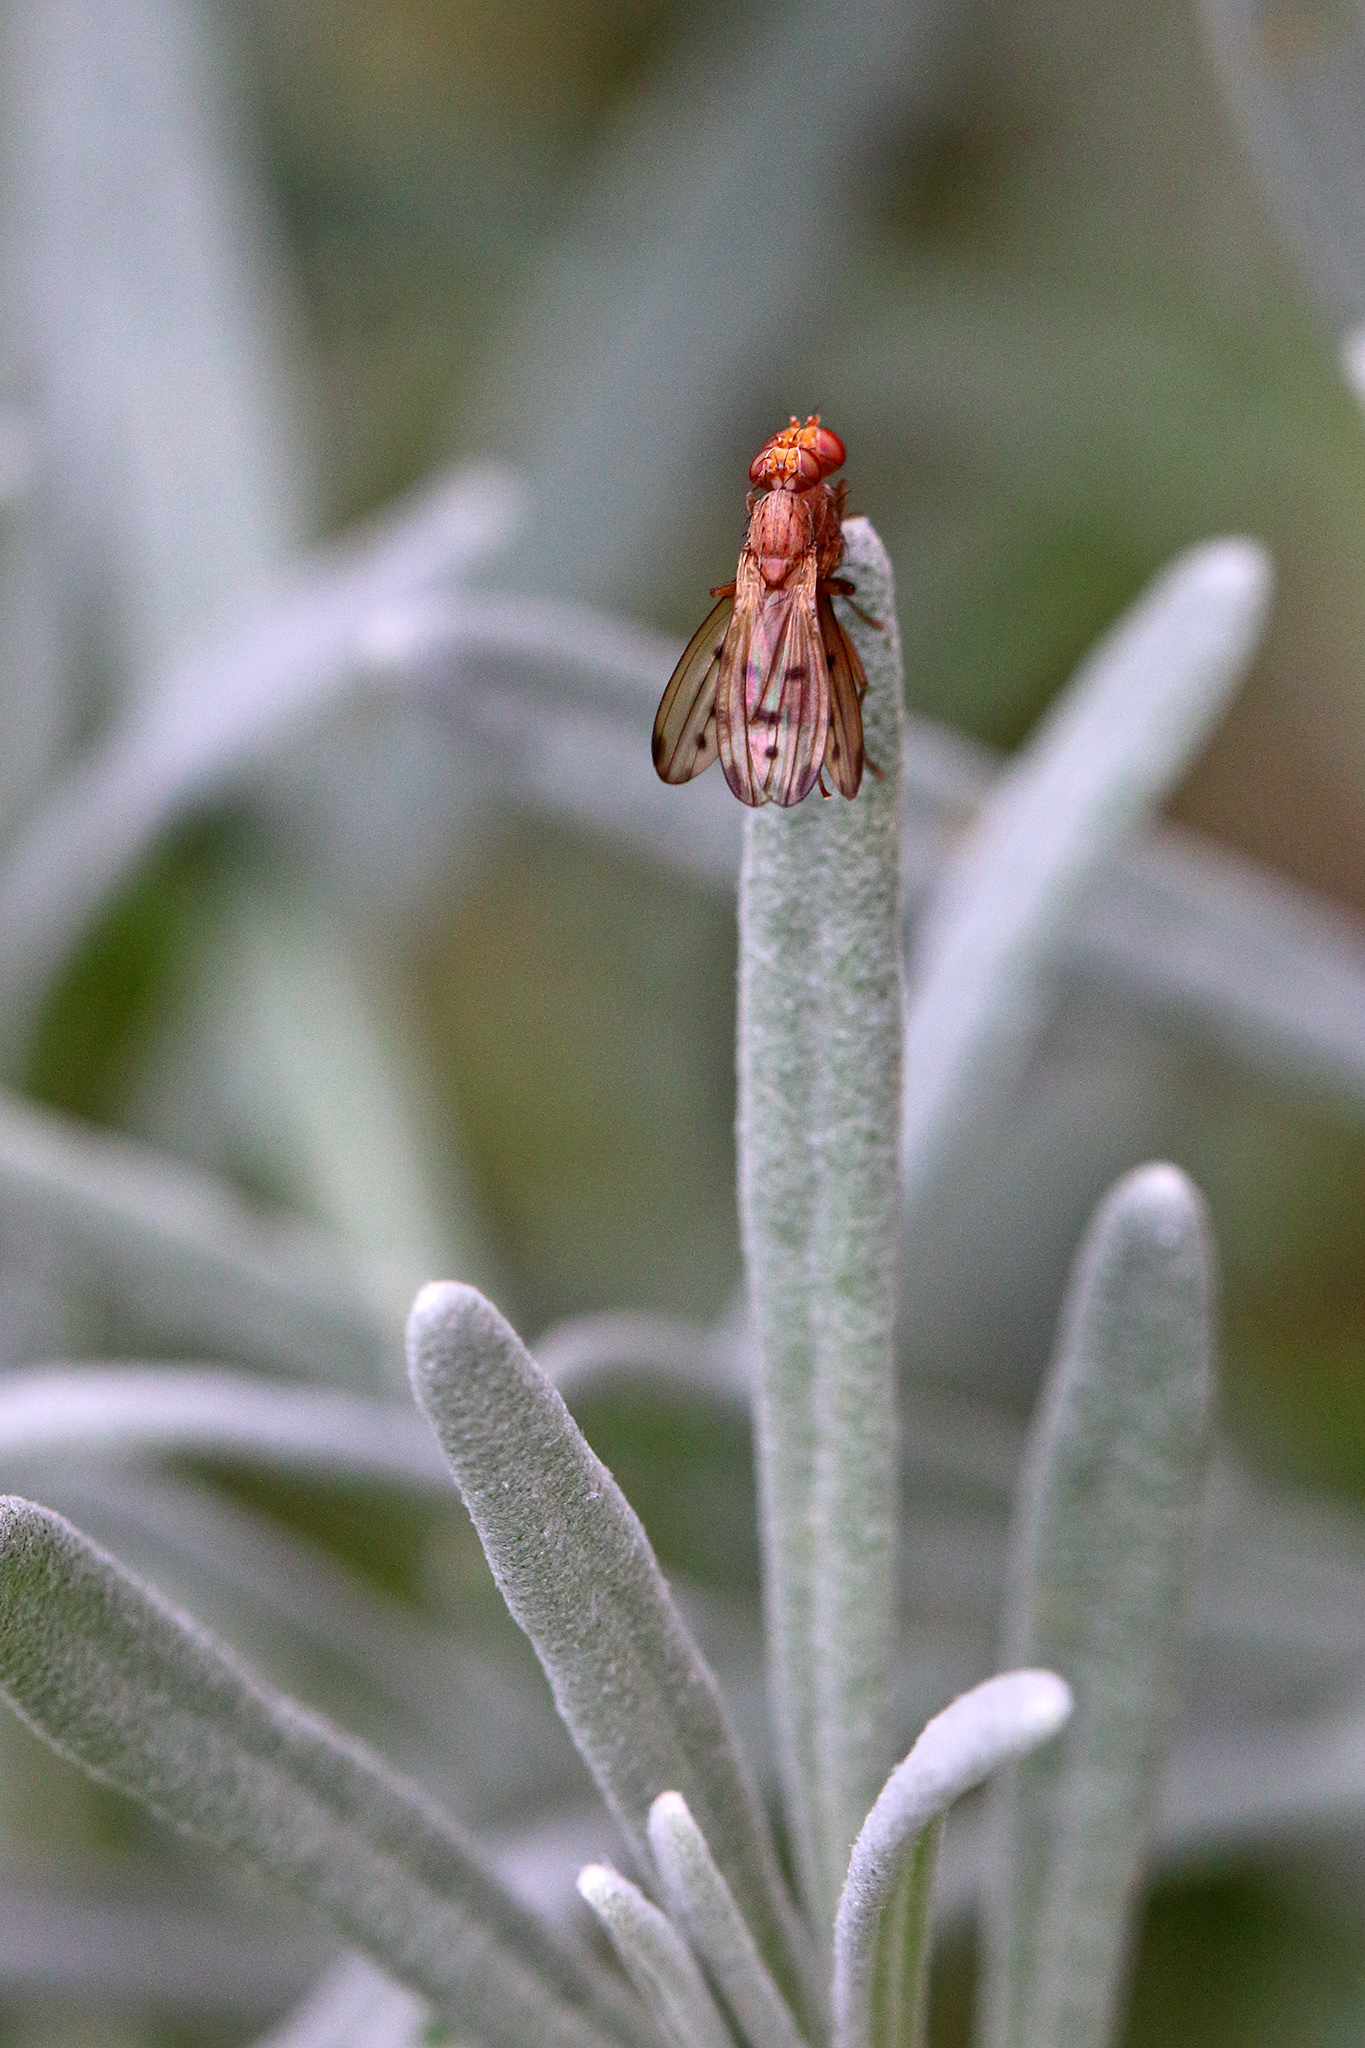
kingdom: Animalia
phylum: Arthropoda
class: Insecta
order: Diptera
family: Opomyzidae
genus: Opomyza
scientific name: Opomyza florum
